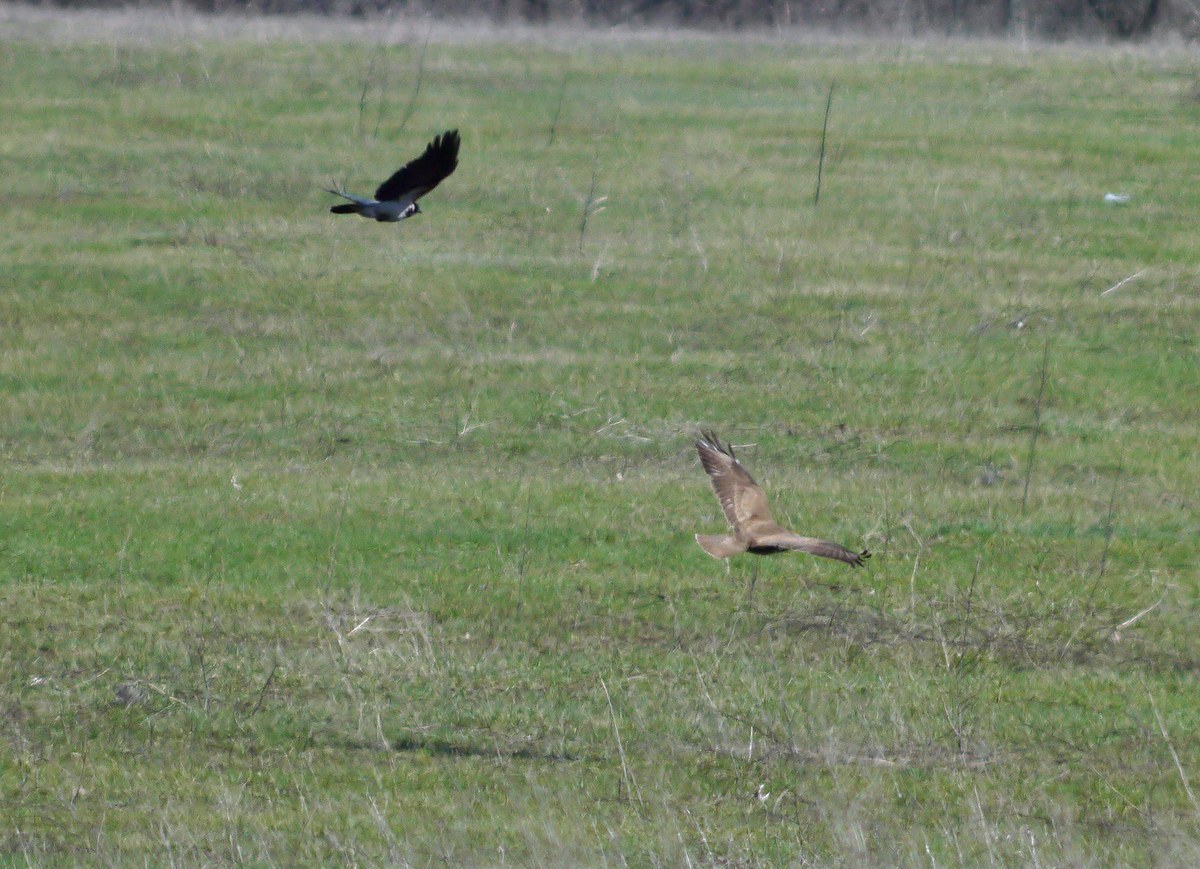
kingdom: Animalia
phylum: Chordata
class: Aves
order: Accipitriformes
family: Accipitridae
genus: Buteo
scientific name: Buteo buteo
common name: Common buzzard
